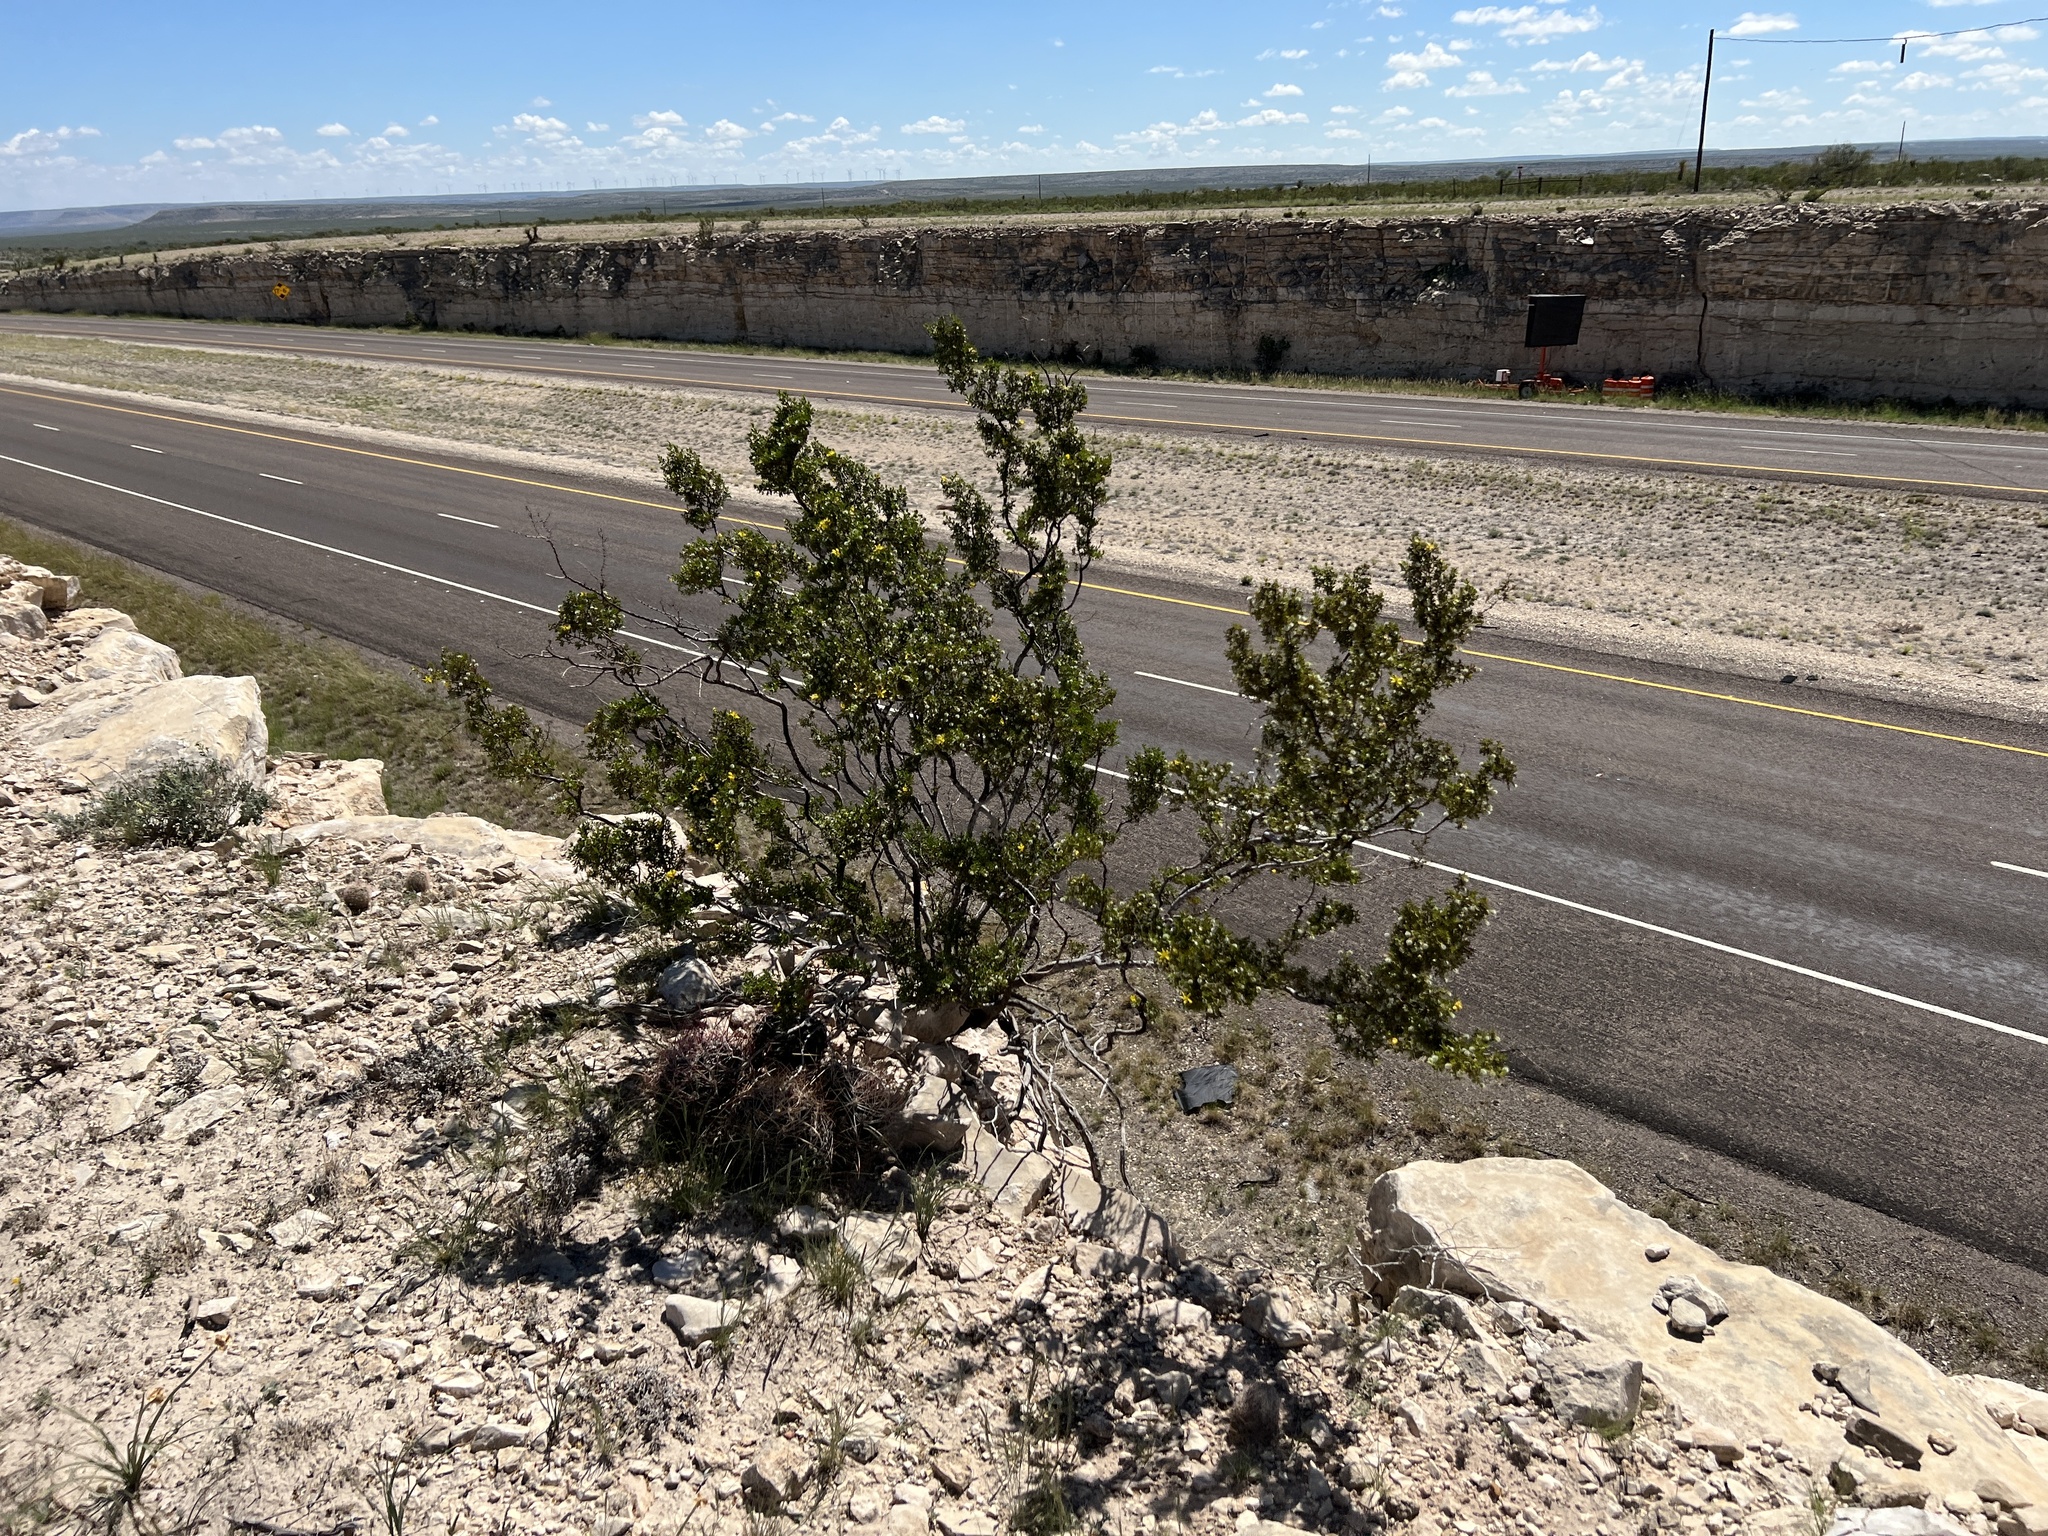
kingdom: Plantae
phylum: Tracheophyta
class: Magnoliopsida
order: Zygophyllales
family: Zygophyllaceae
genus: Larrea
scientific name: Larrea tridentata
